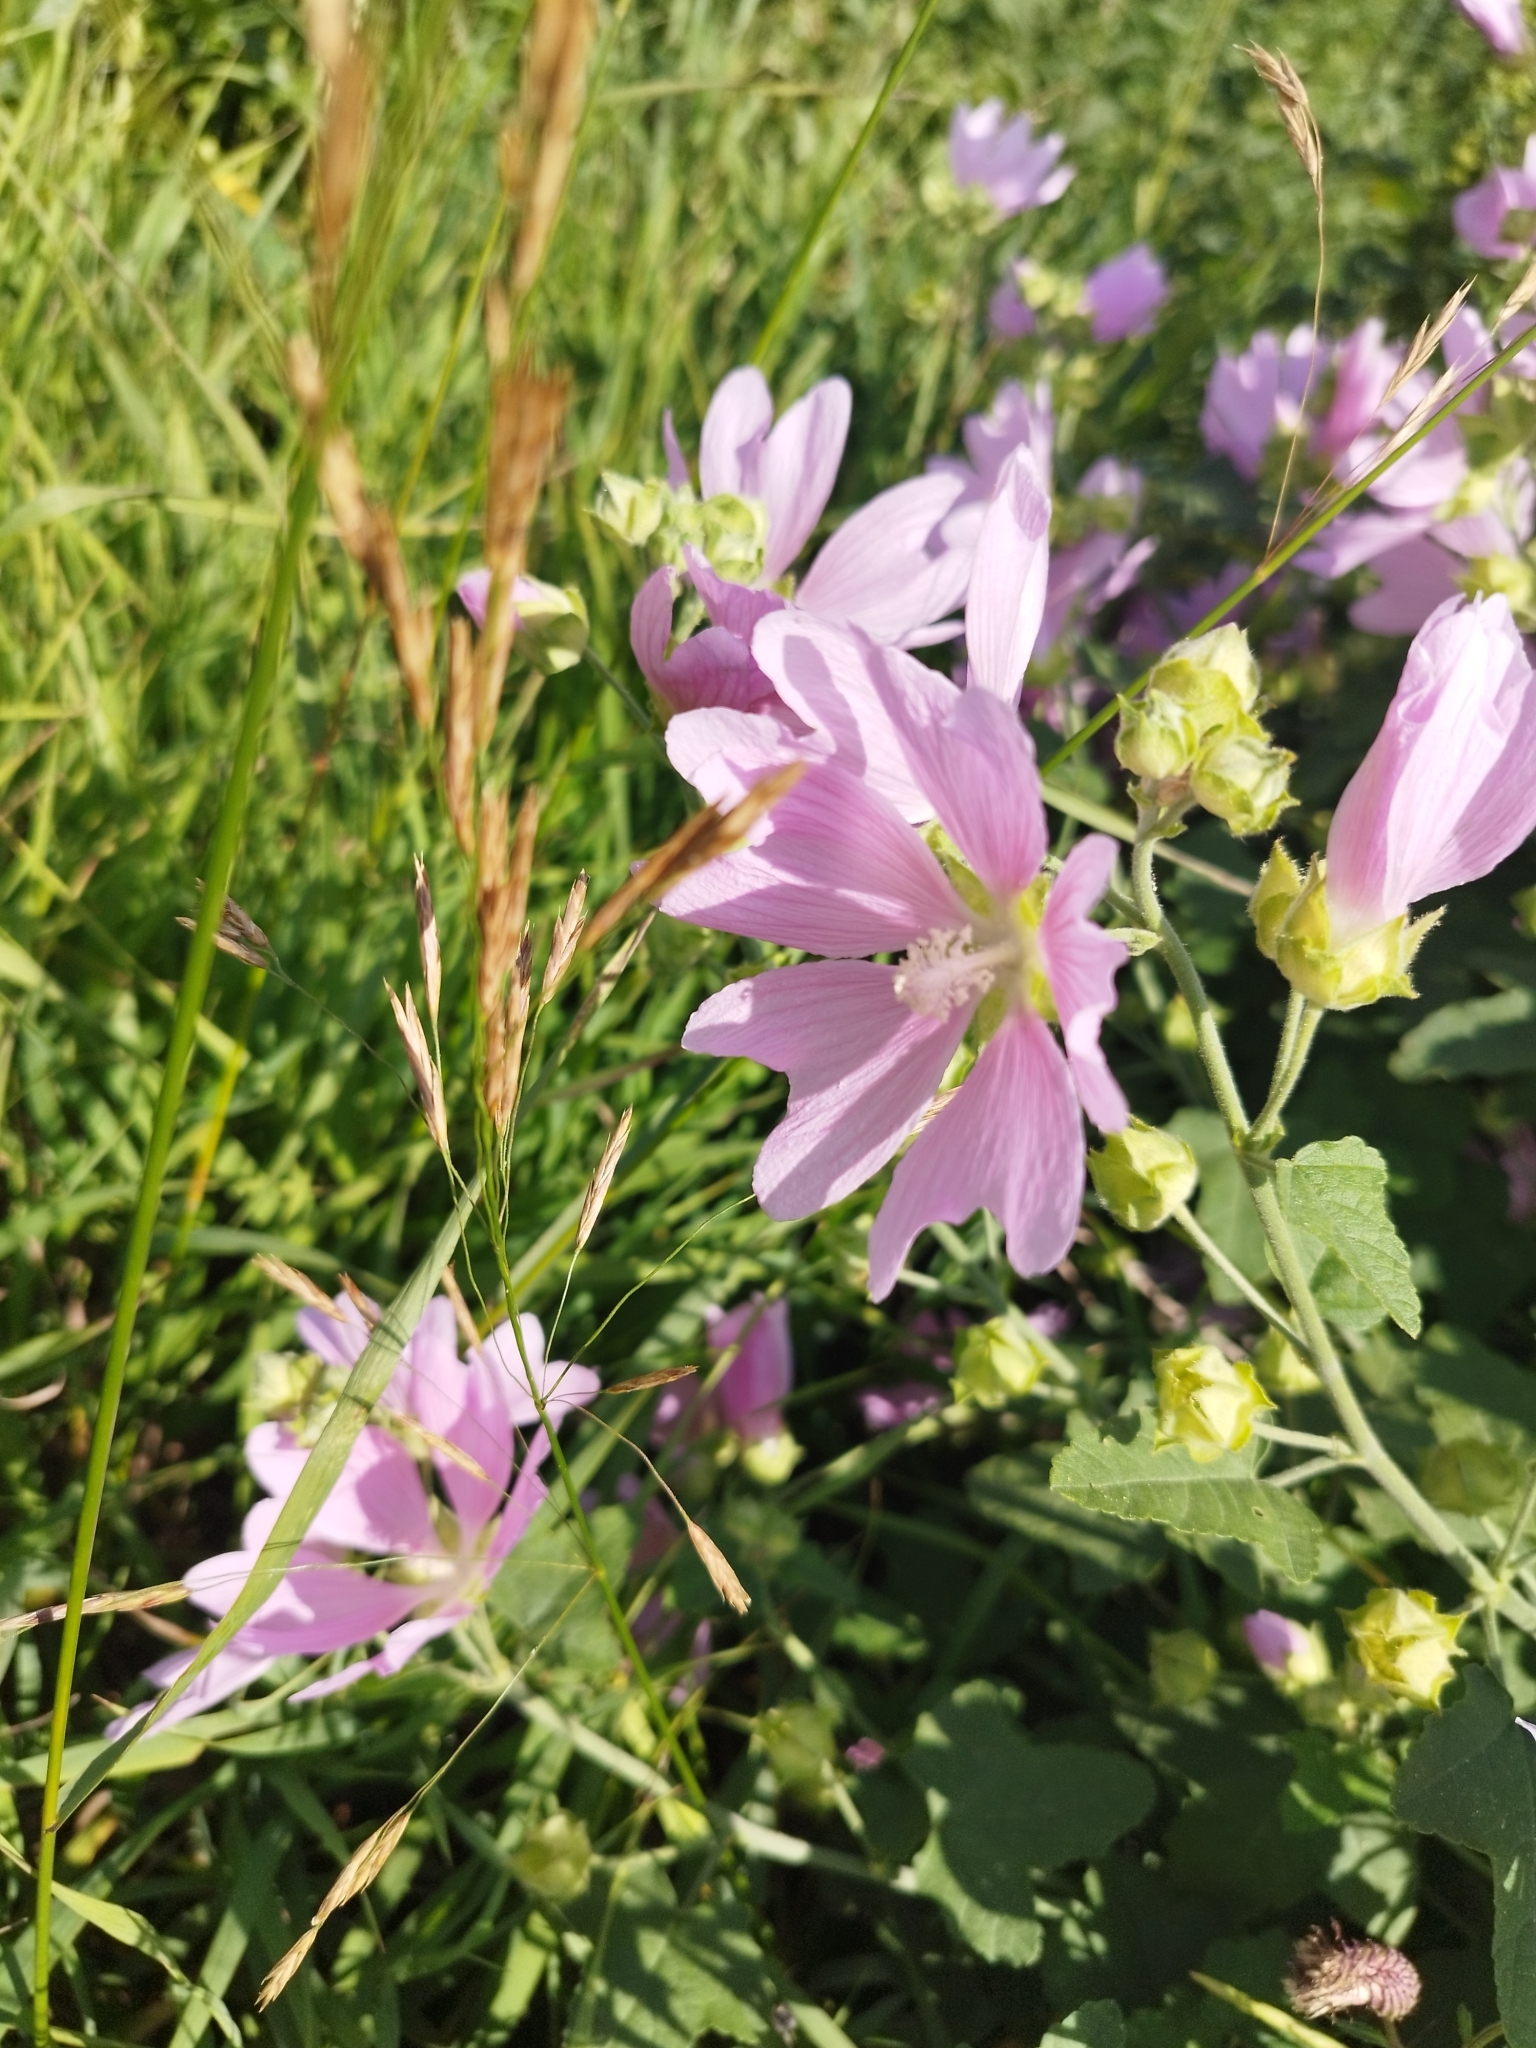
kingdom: Plantae
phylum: Tracheophyta
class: Magnoliopsida
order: Malvales
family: Malvaceae
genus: Malva
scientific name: Malva thuringiaca
